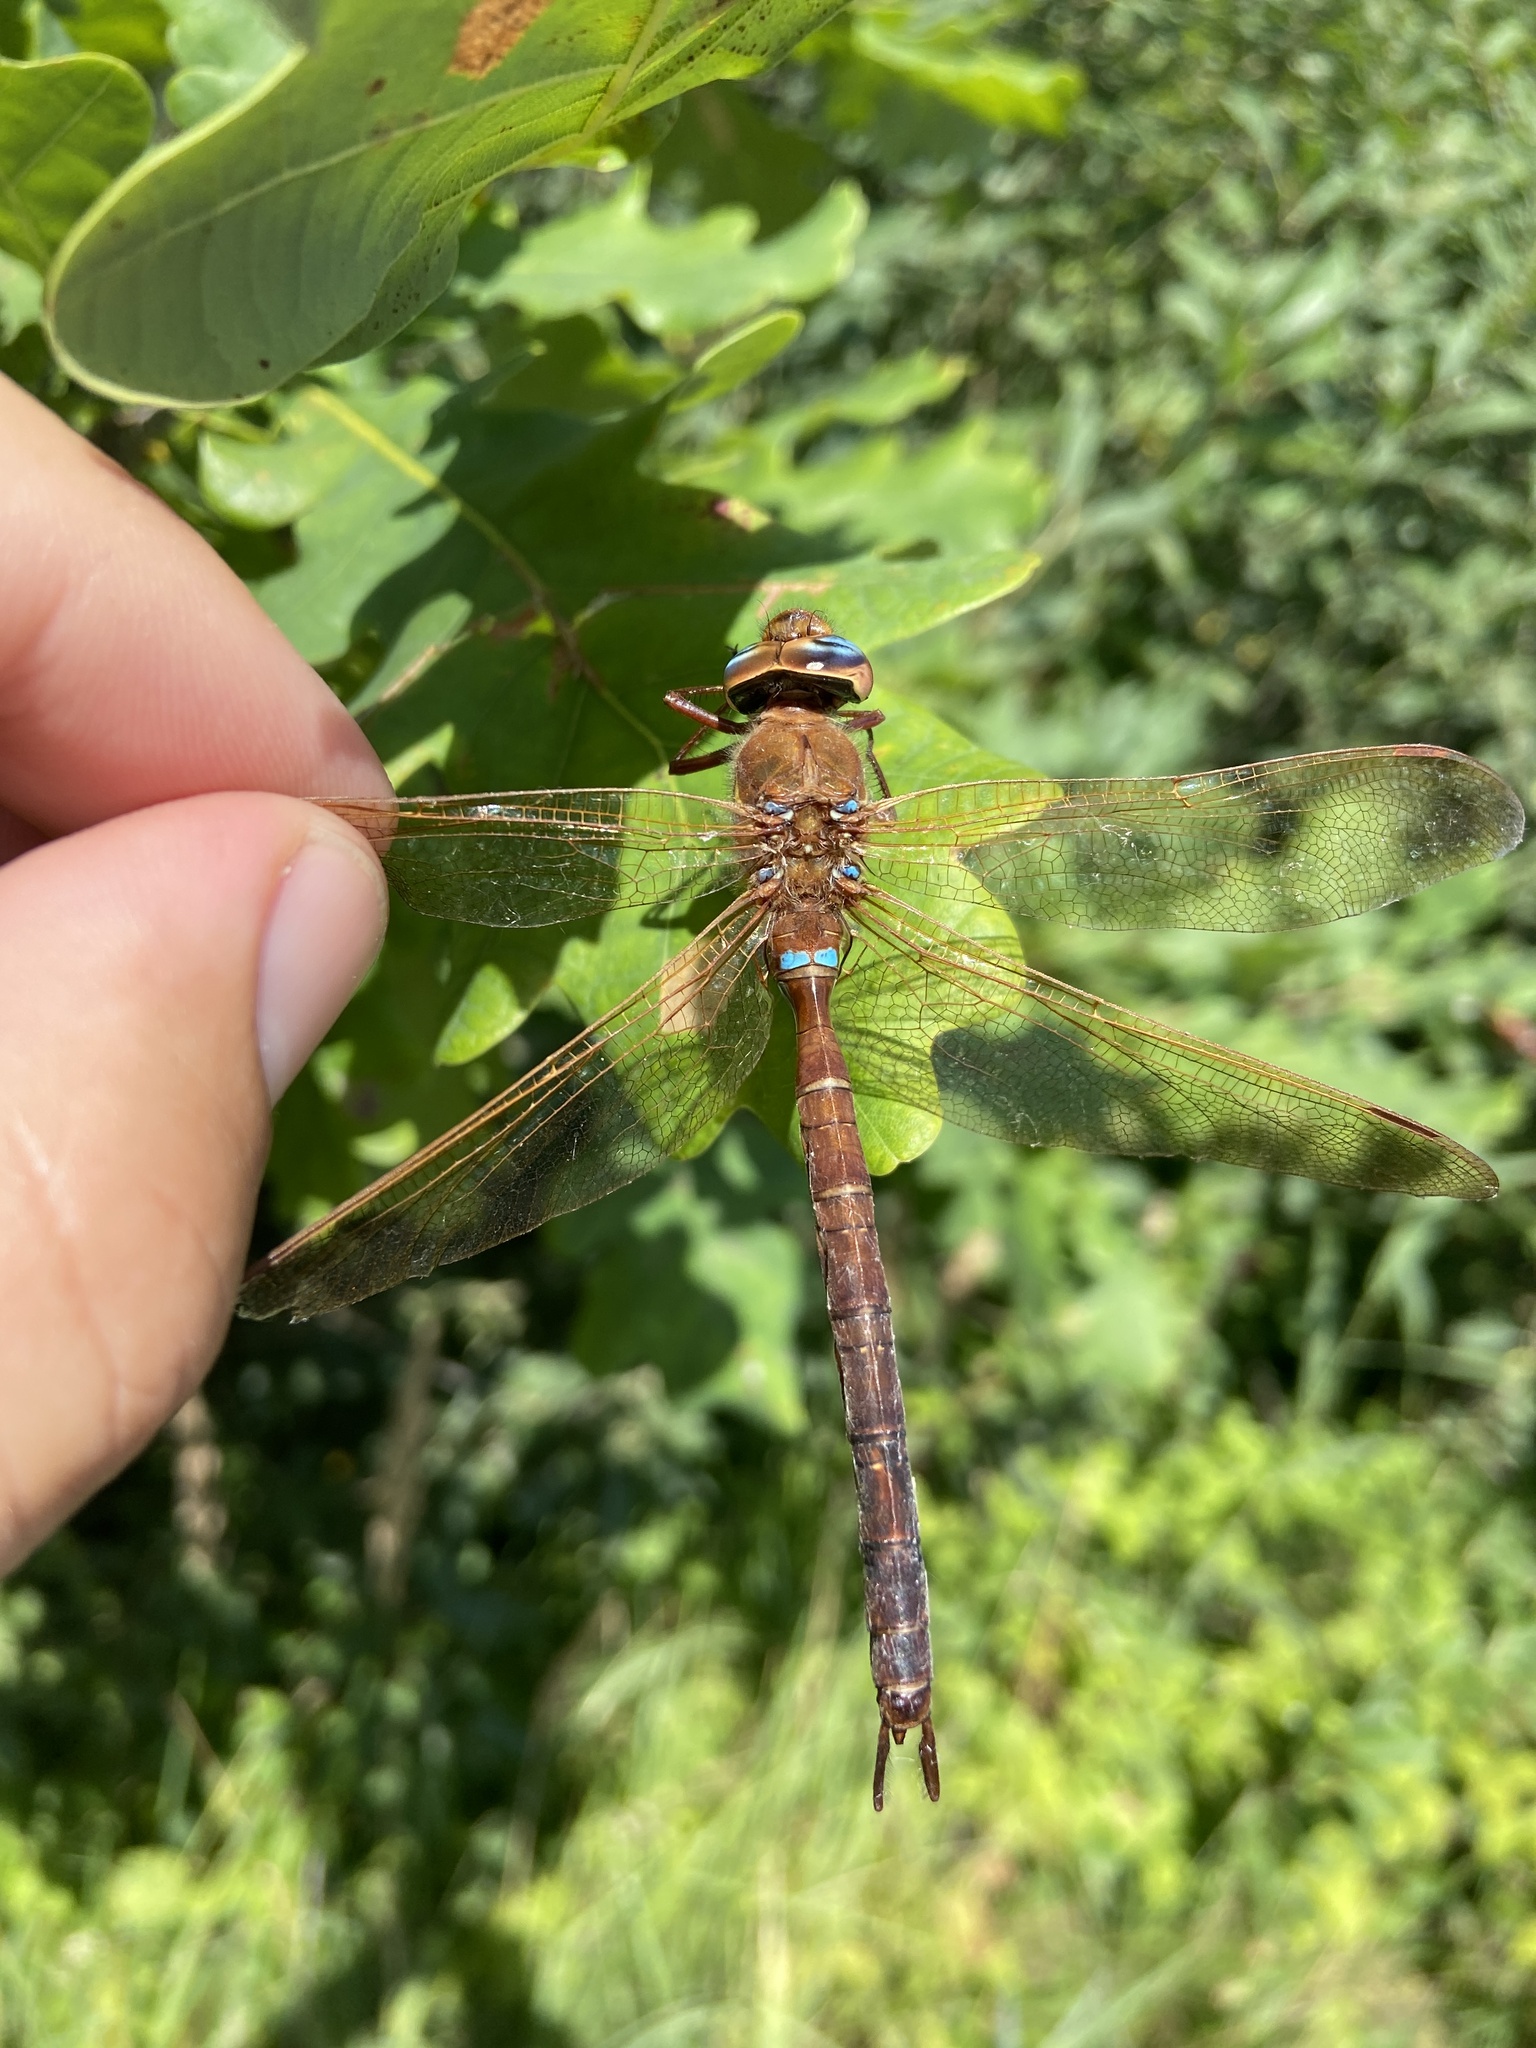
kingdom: Animalia
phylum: Arthropoda
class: Insecta
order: Odonata
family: Aeshnidae
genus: Aeshna
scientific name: Aeshna grandis
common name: Brown hawker
